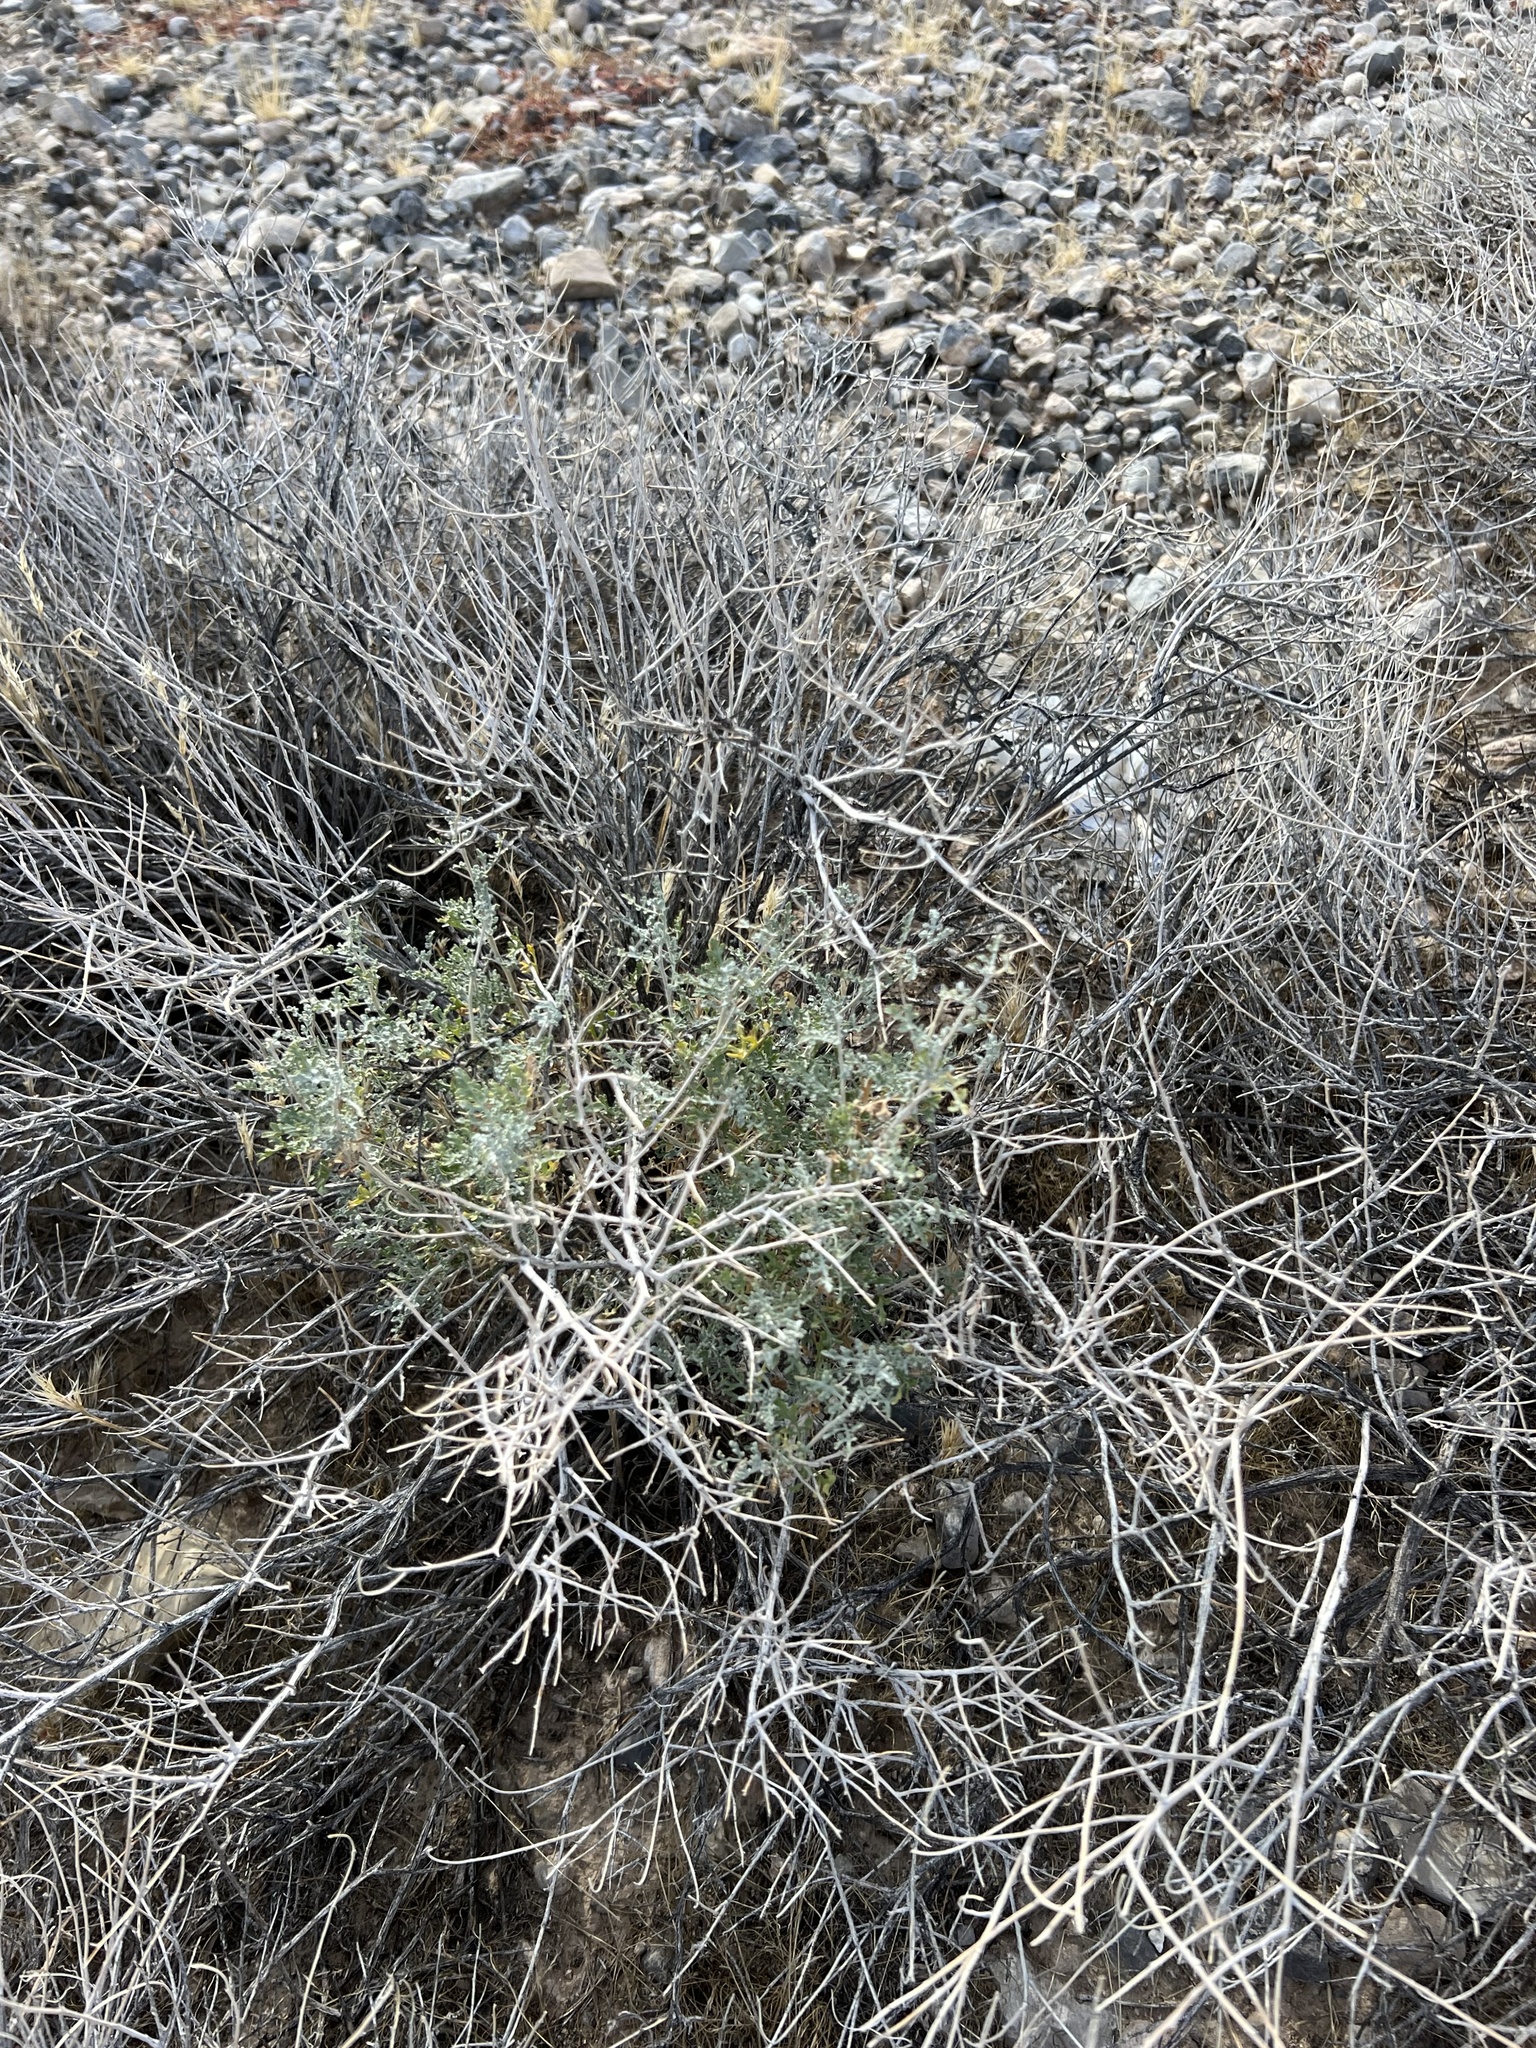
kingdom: Plantae
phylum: Tracheophyta
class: Magnoliopsida
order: Asterales
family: Asteraceae
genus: Ambrosia
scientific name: Ambrosia dumosa
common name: Bur-sage
